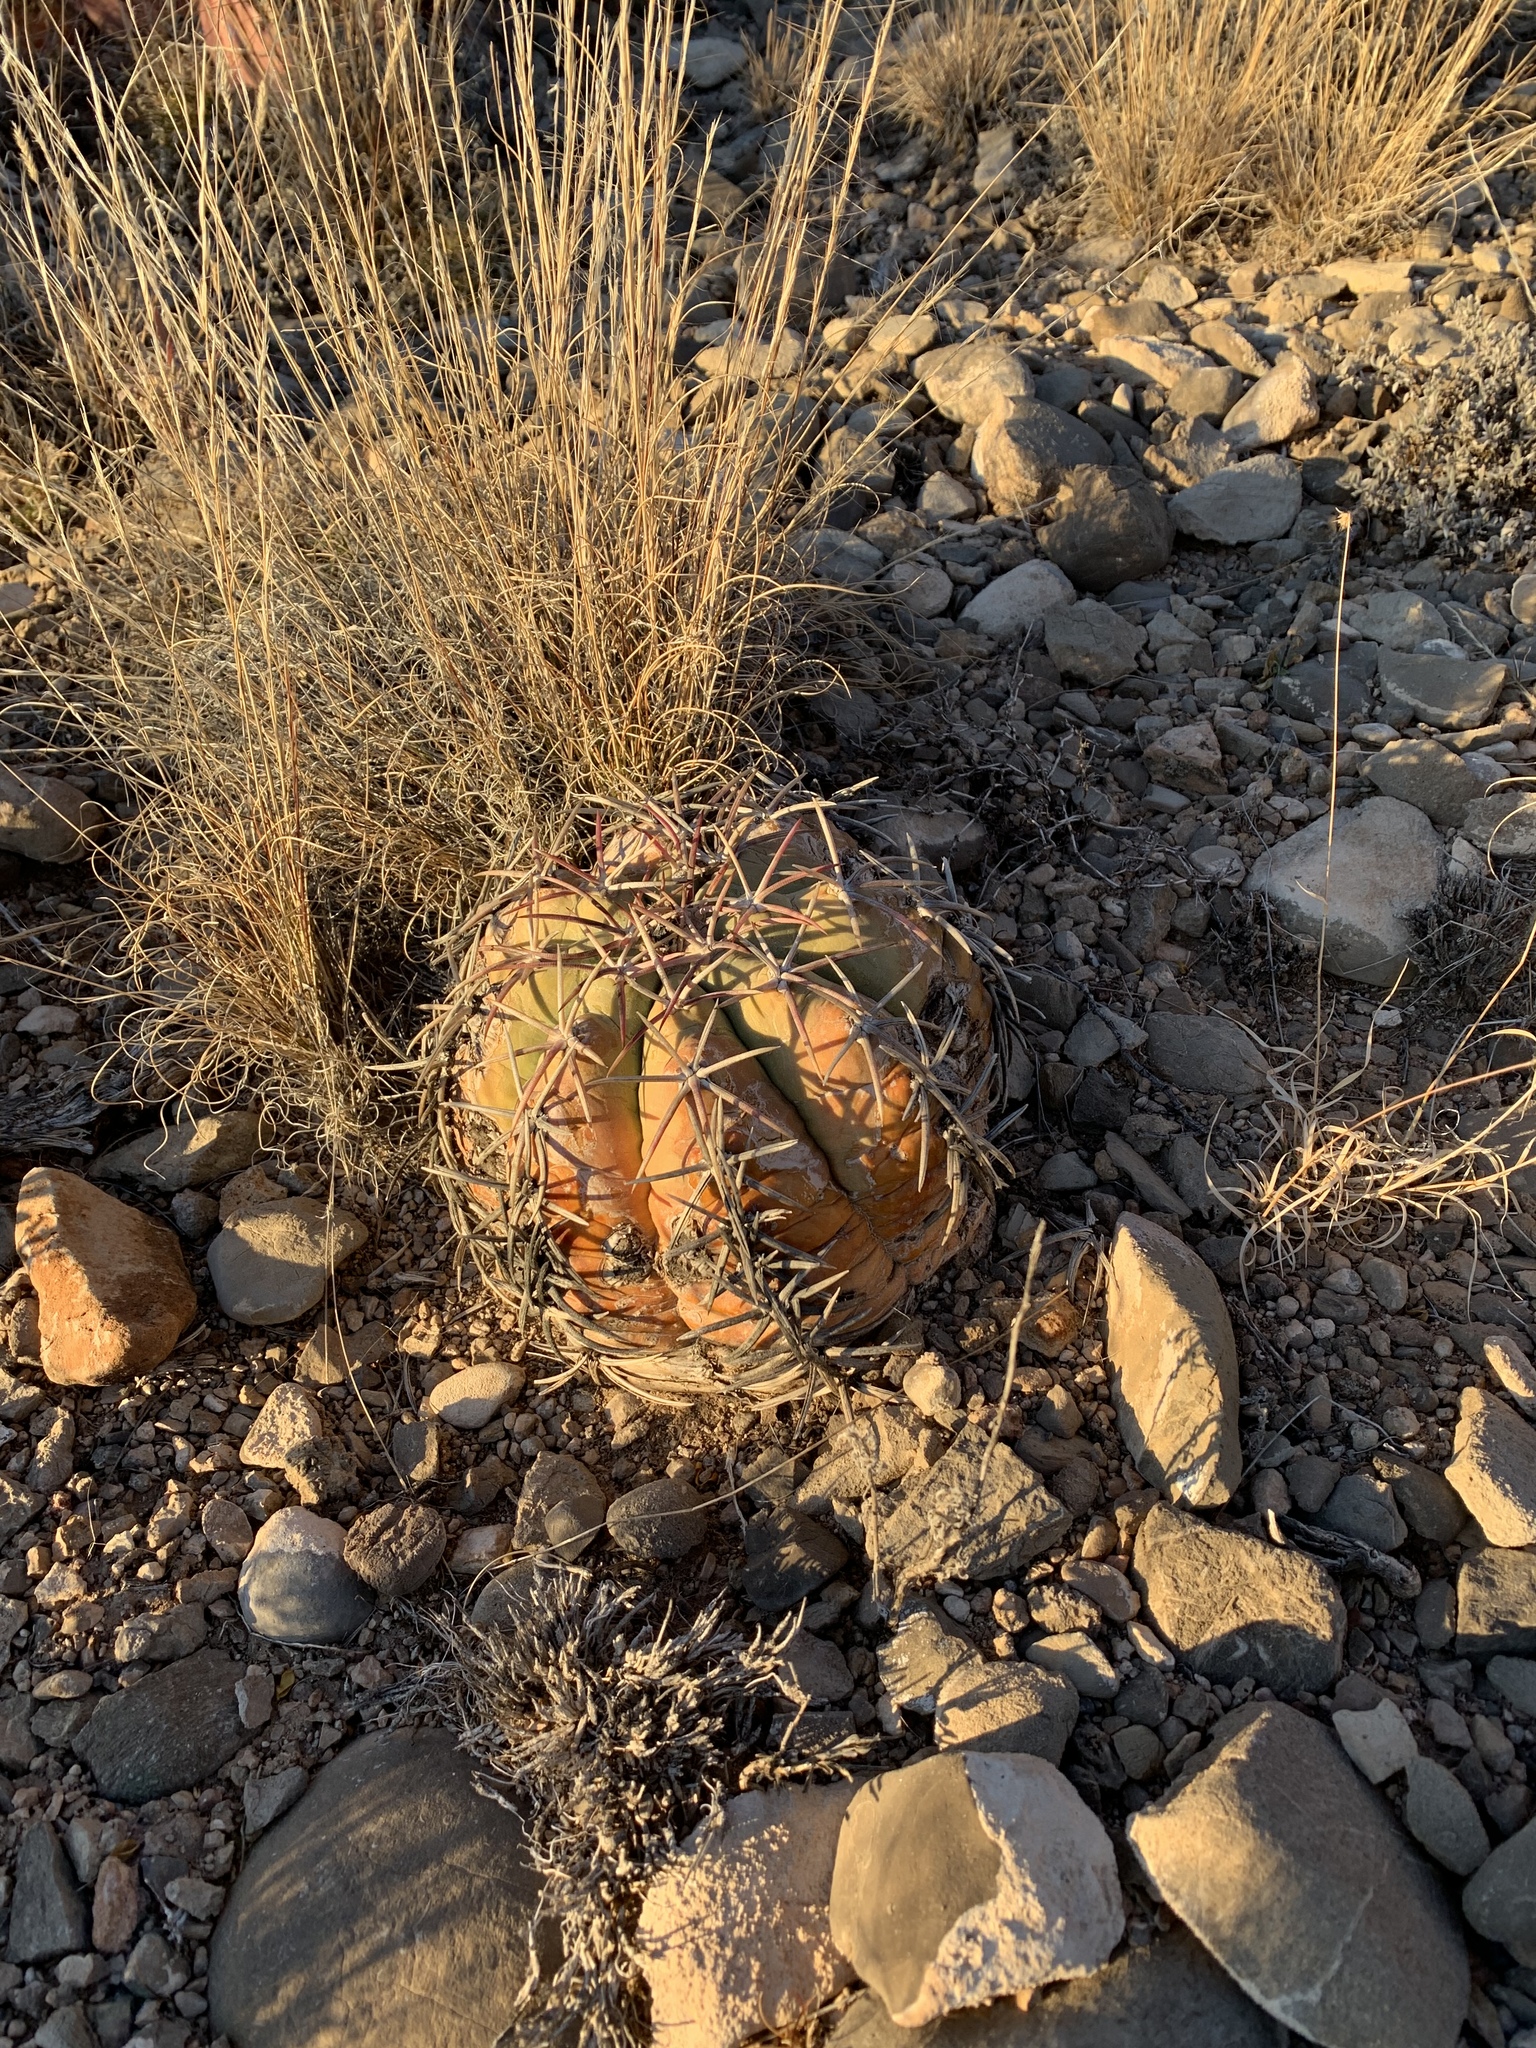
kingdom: Plantae
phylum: Tracheophyta
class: Magnoliopsida
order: Caryophyllales
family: Cactaceae
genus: Echinocactus
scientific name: Echinocactus horizonthalonius
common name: Devilshead
